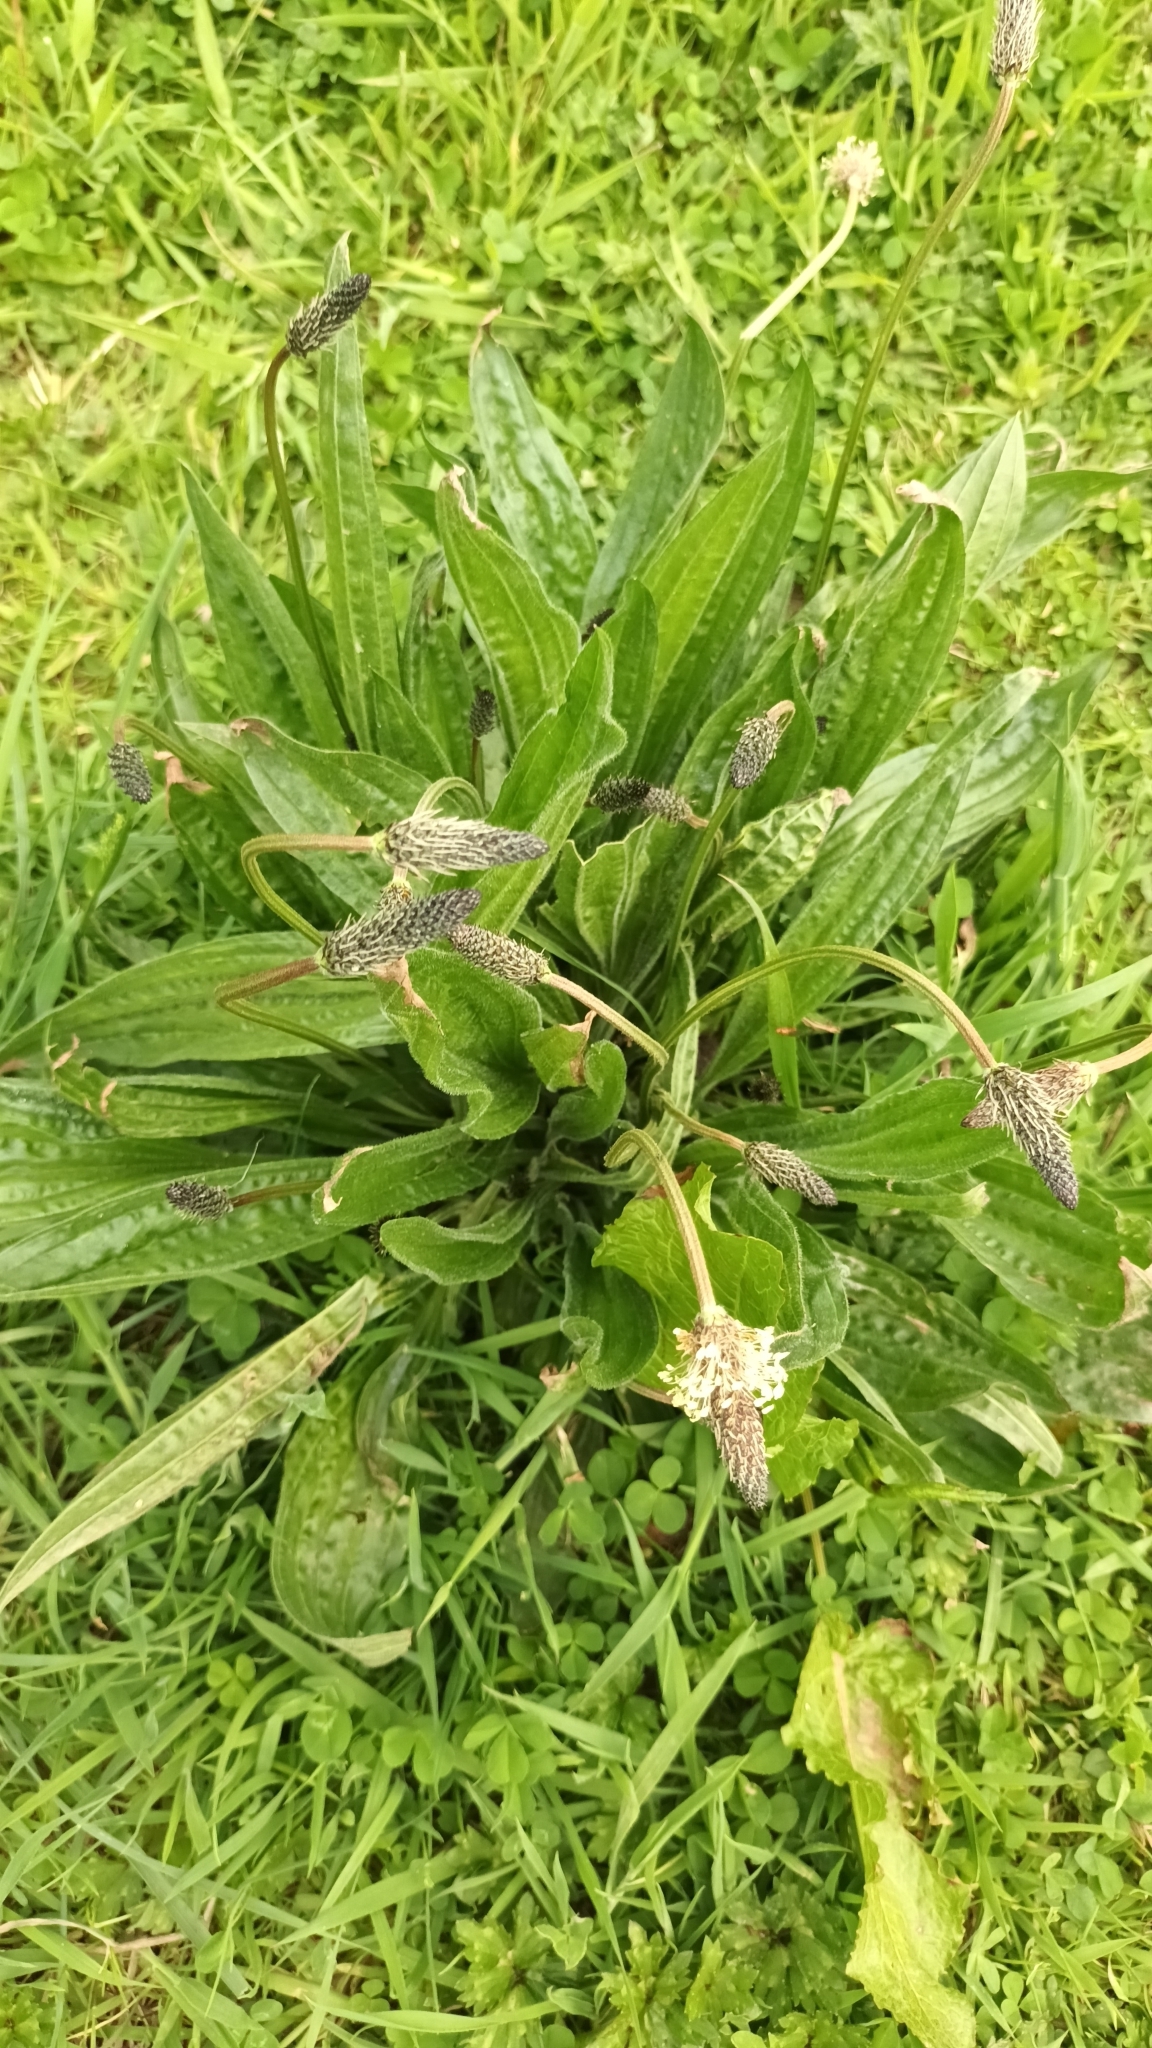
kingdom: Plantae
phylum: Tracheophyta
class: Magnoliopsida
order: Lamiales
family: Plantaginaceae
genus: Plantago
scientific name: Plantago lanceolata
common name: Ribwort plantain
